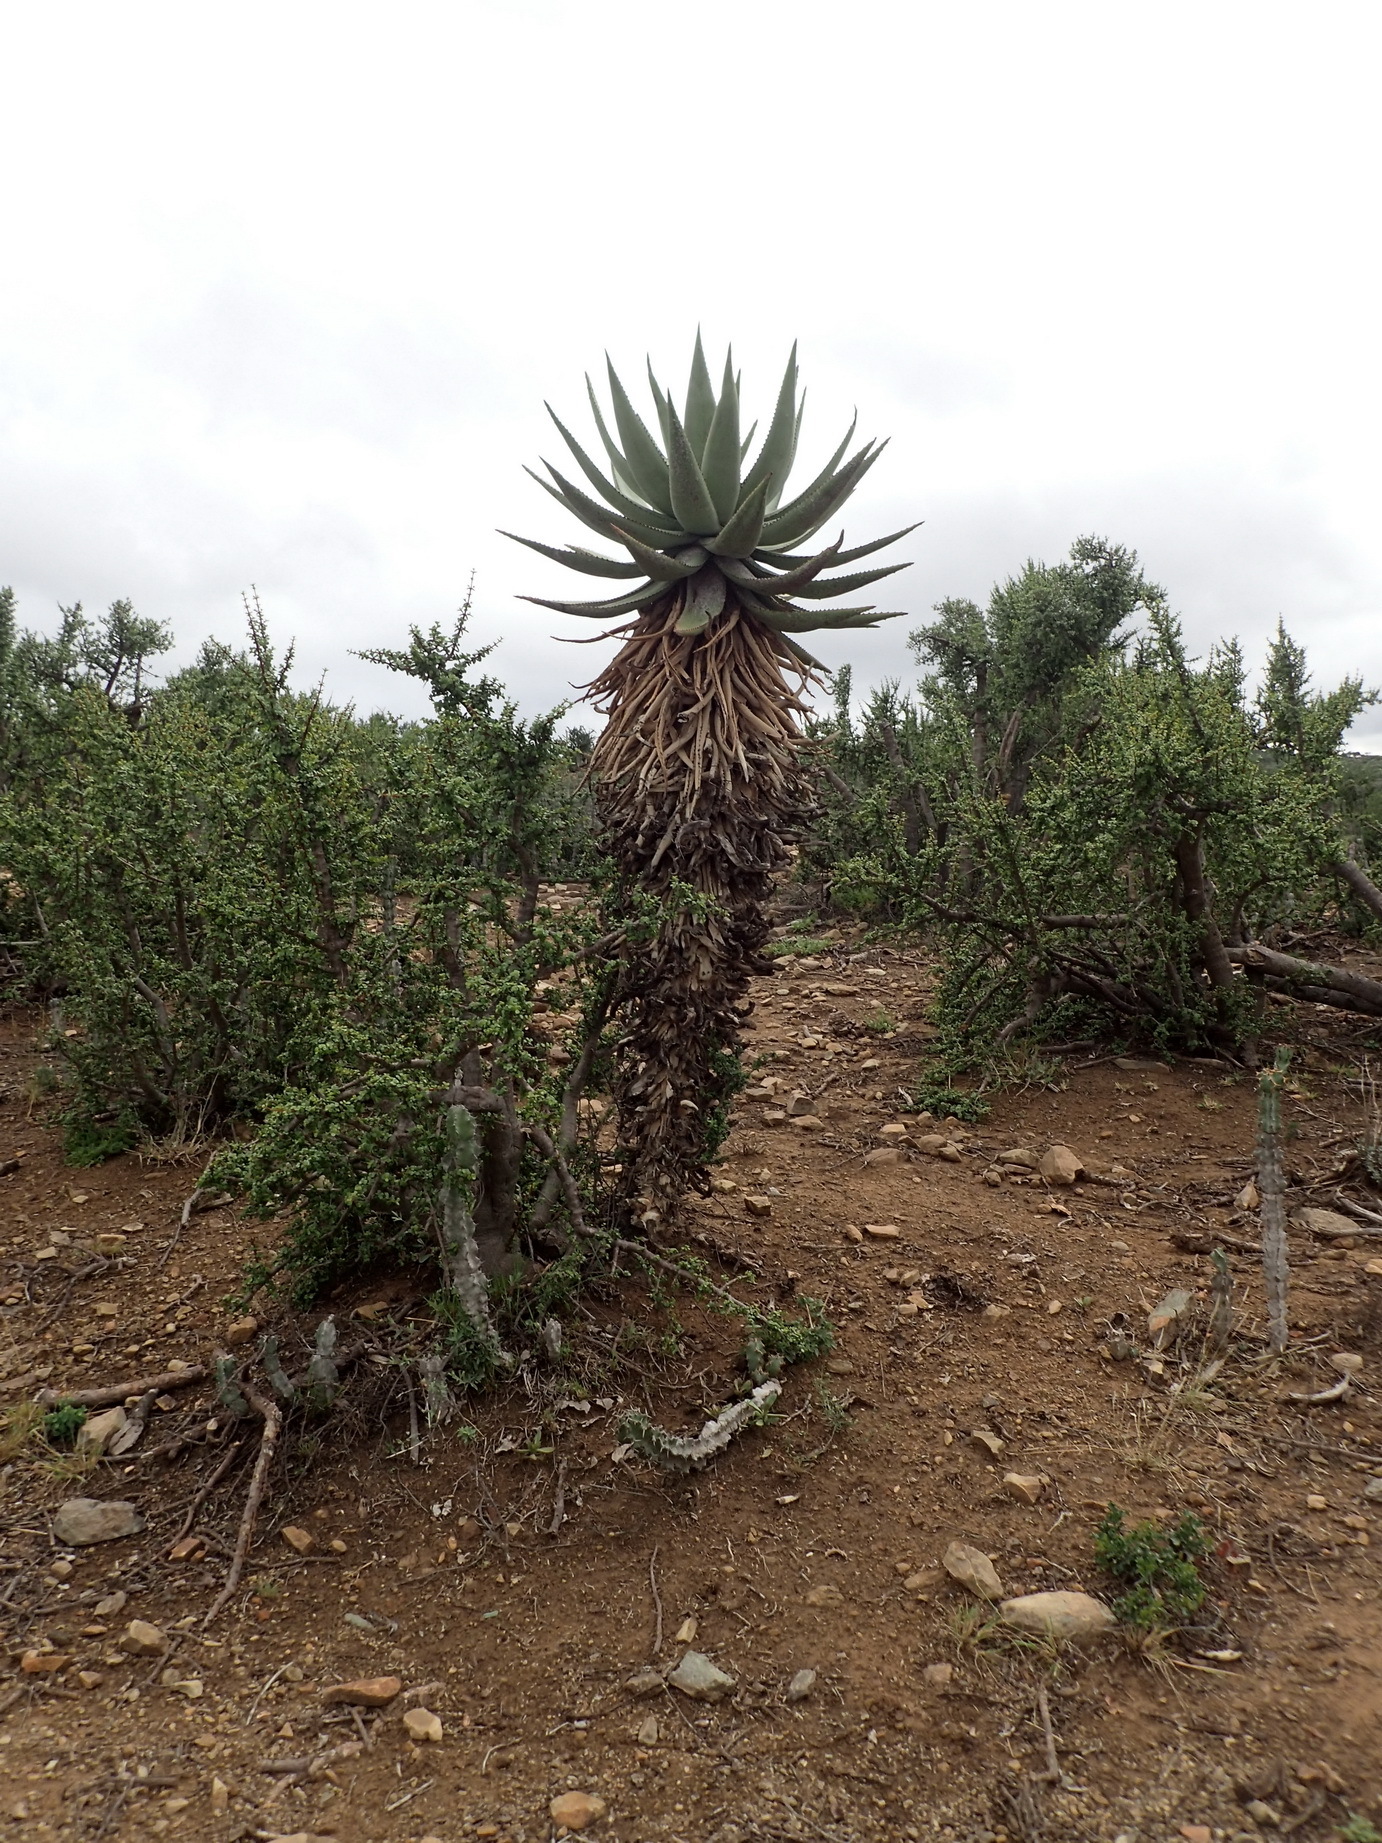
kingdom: Plantae
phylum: Tracheophyta
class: Liliopsida
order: Asparagales
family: Asphodelaceae
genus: Aloe
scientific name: Aloe ferox
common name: Bitter aloe
